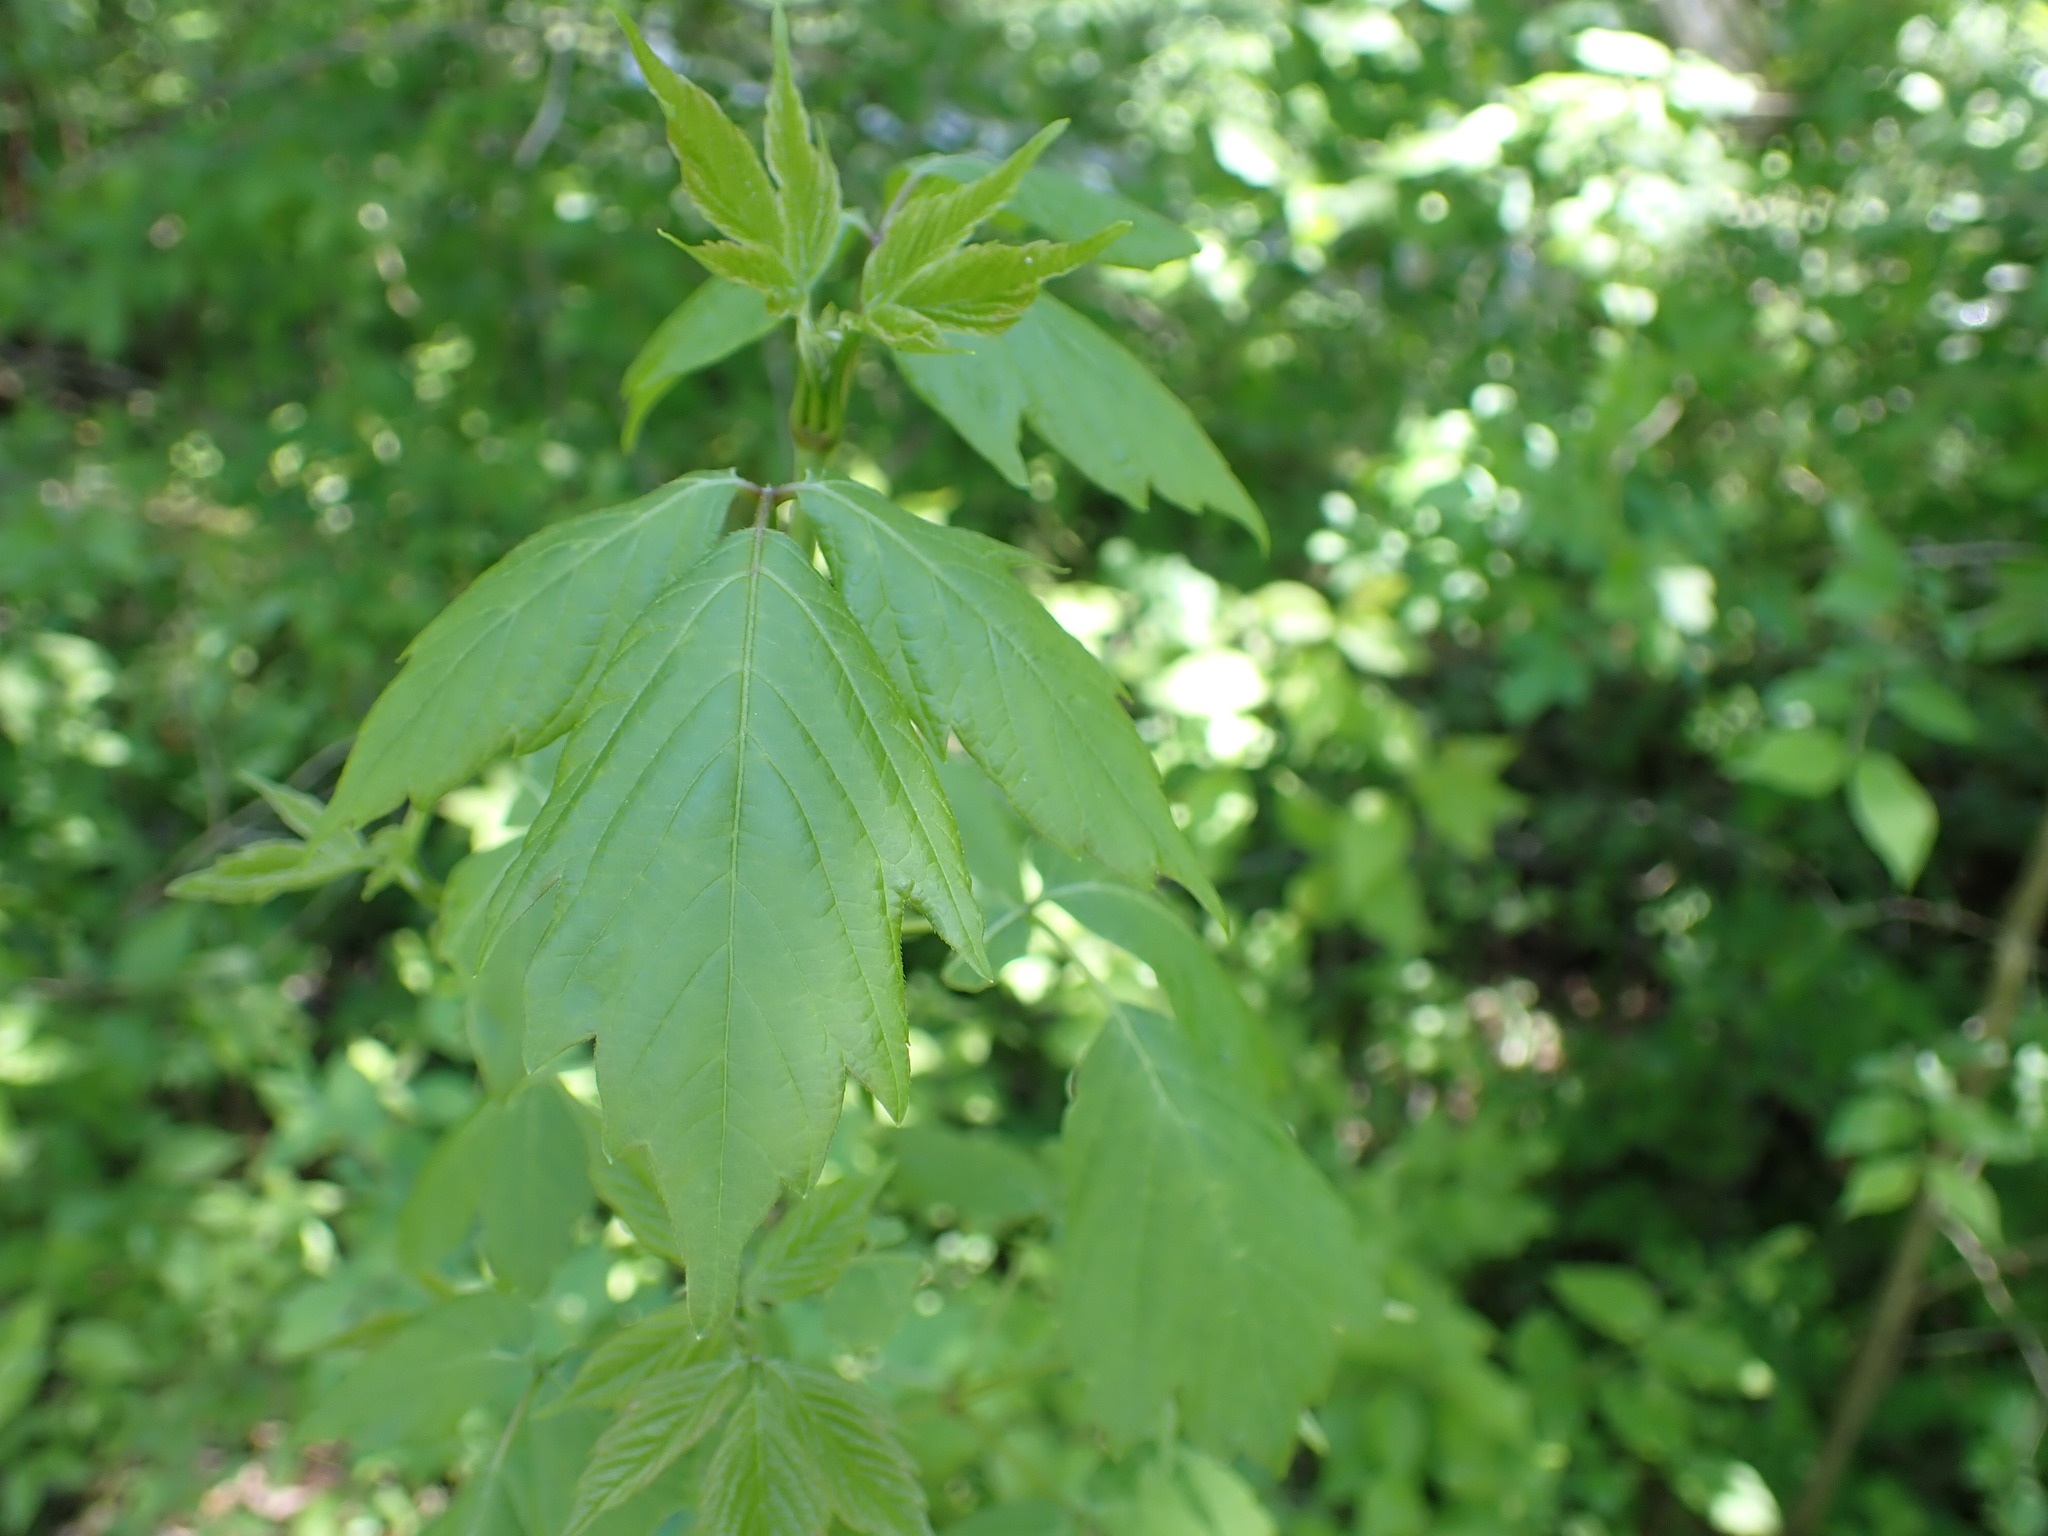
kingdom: Plantae
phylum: Tracheophyta
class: Magnoliopsida
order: Sapindales
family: Sapindaceae
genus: Acer
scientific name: Acer negundo
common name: Ashleaf maple
